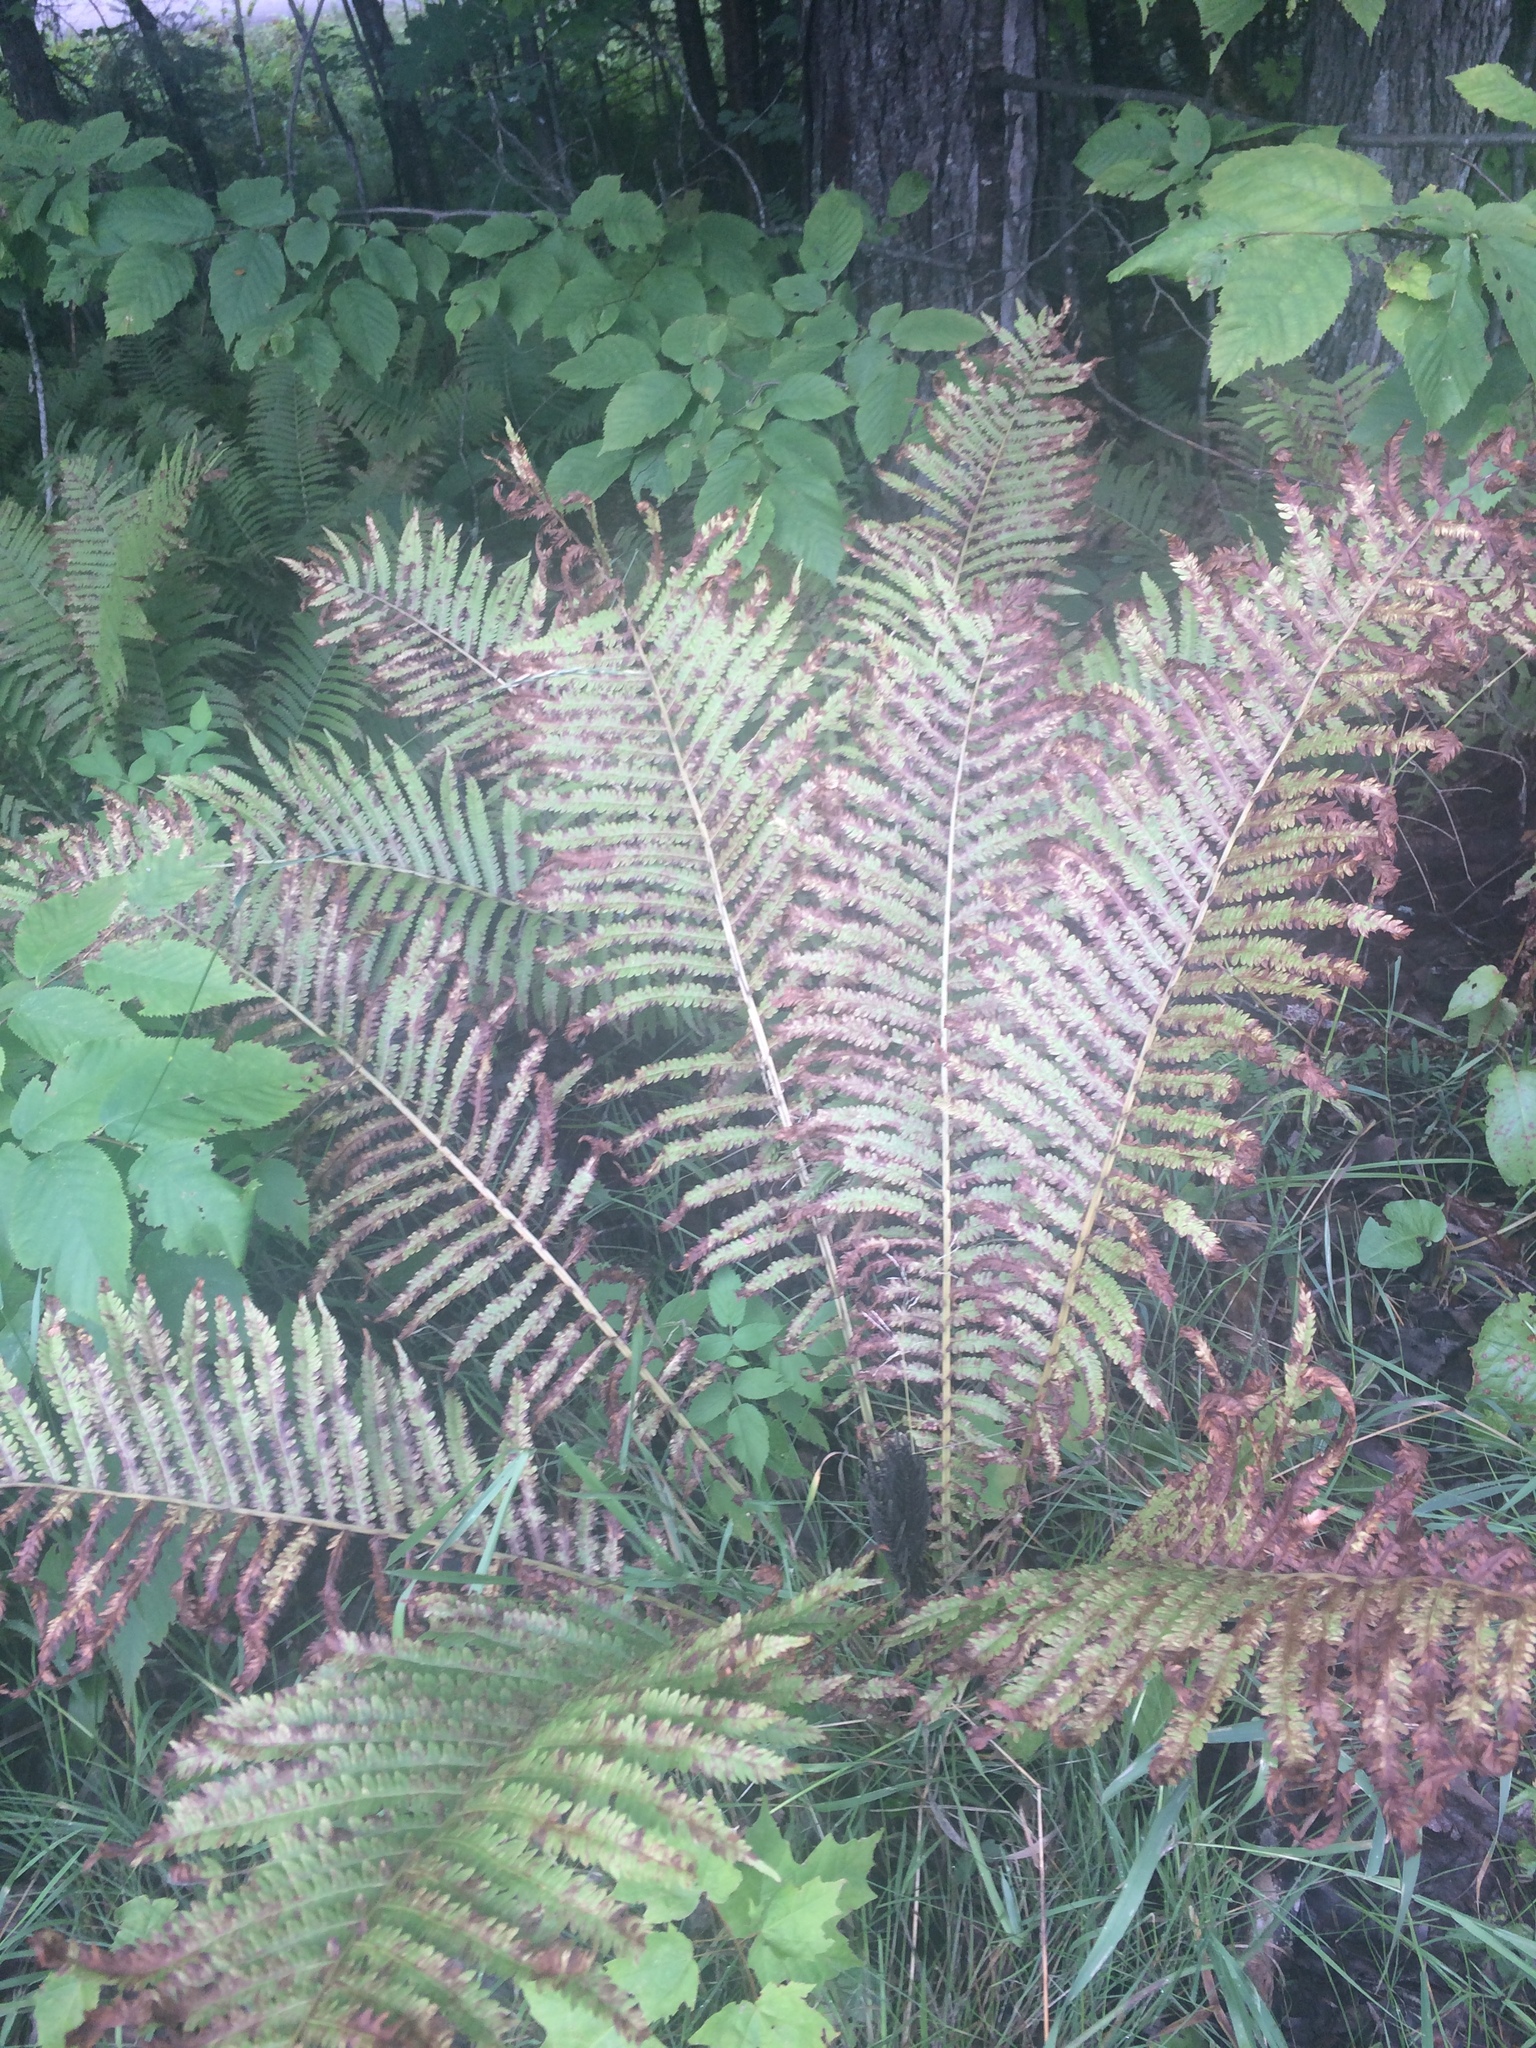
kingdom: Plantae
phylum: Tracheophyta
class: Polypodiopsida
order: Polypodiales
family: Onocleaceae
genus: Matteuccia
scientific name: Matteuccia struthiopteris
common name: Ostrich fern
